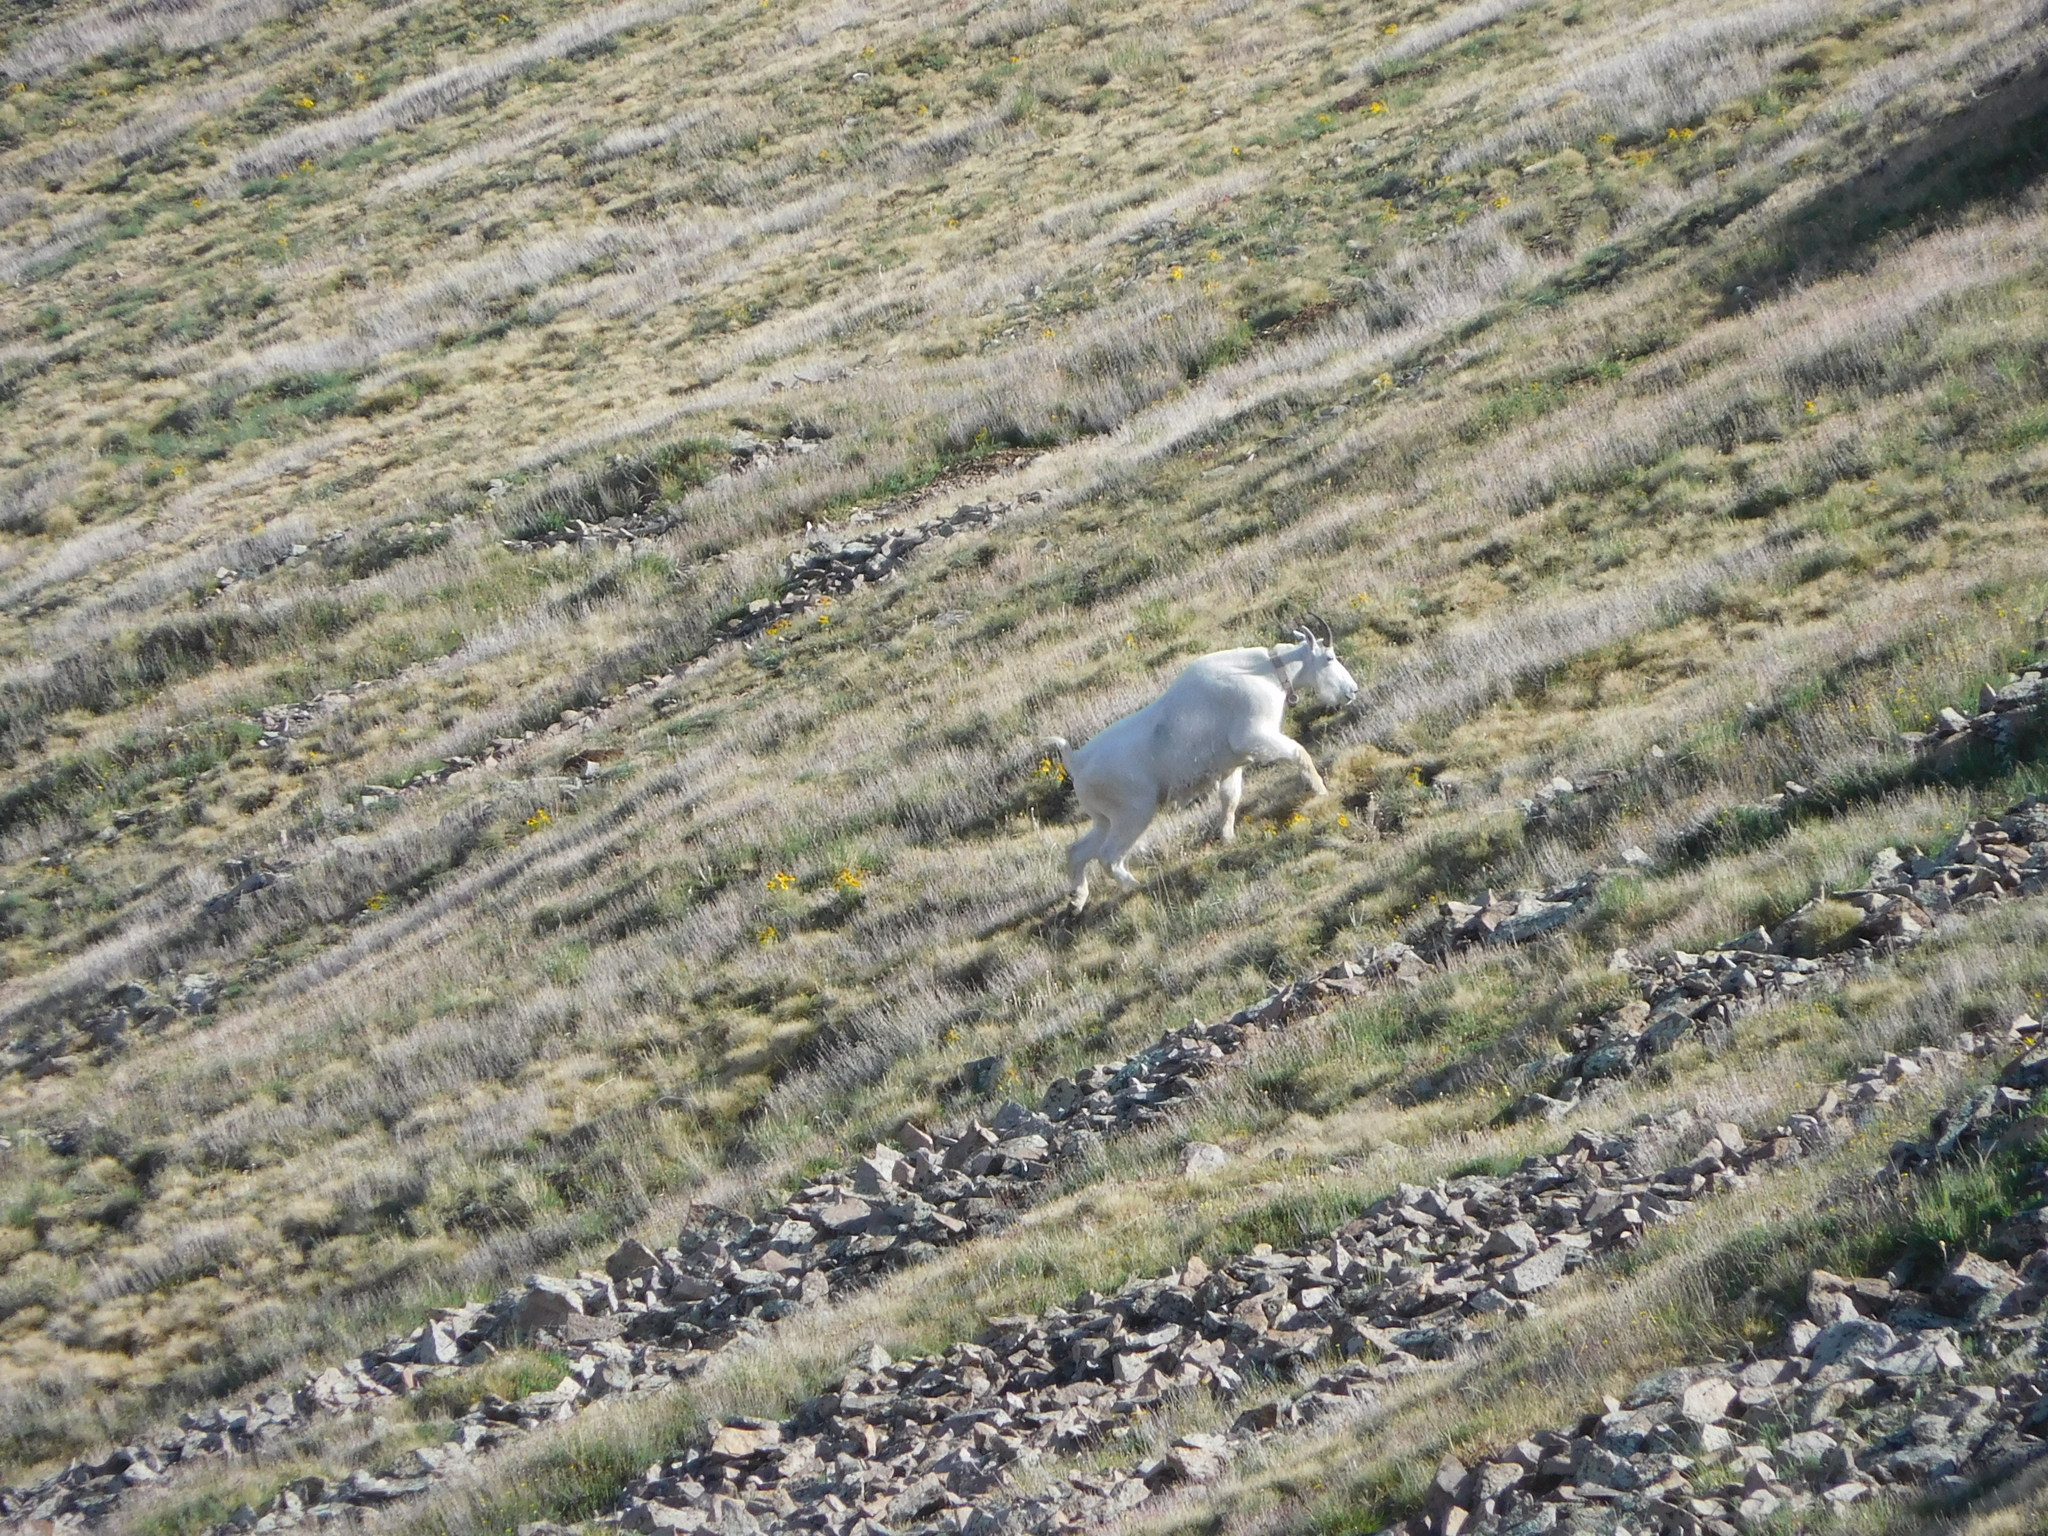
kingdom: Animalia
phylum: Chordata
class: Mammalia
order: Artiodactyla
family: Bovidae
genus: Oreamnos
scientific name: Oreamnos americanus
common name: Mountain goat
